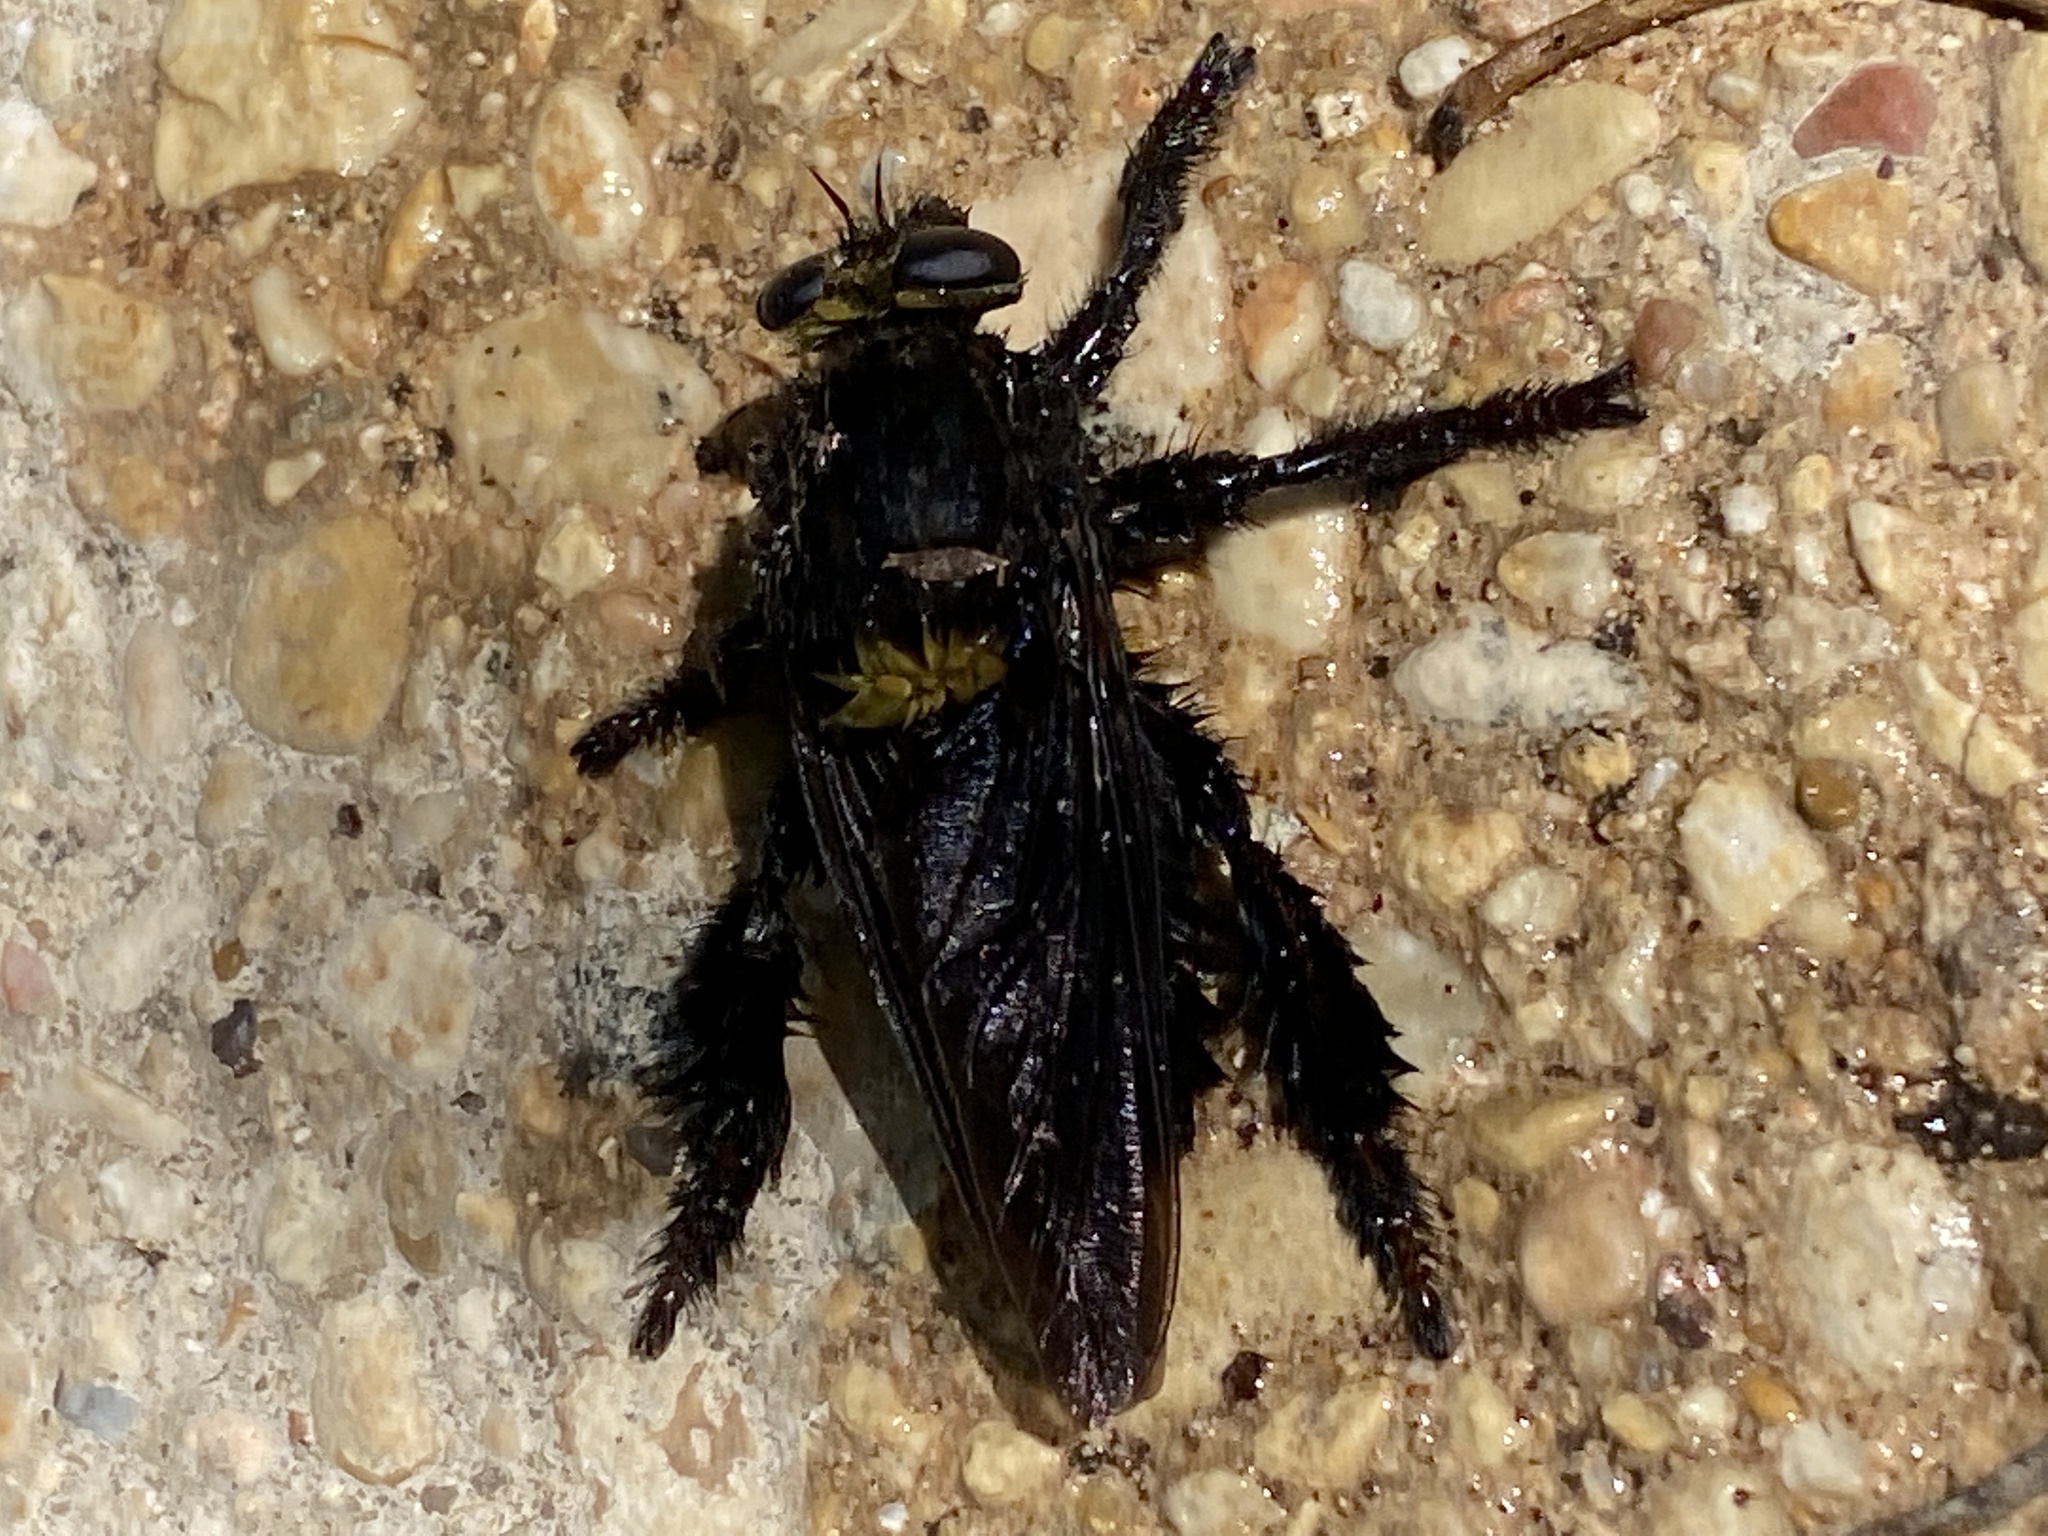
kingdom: Animalia
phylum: Arthropoda
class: Insecta
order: Diptera
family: Asilidae
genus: Mallophora
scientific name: Mallophora leschenaultii
